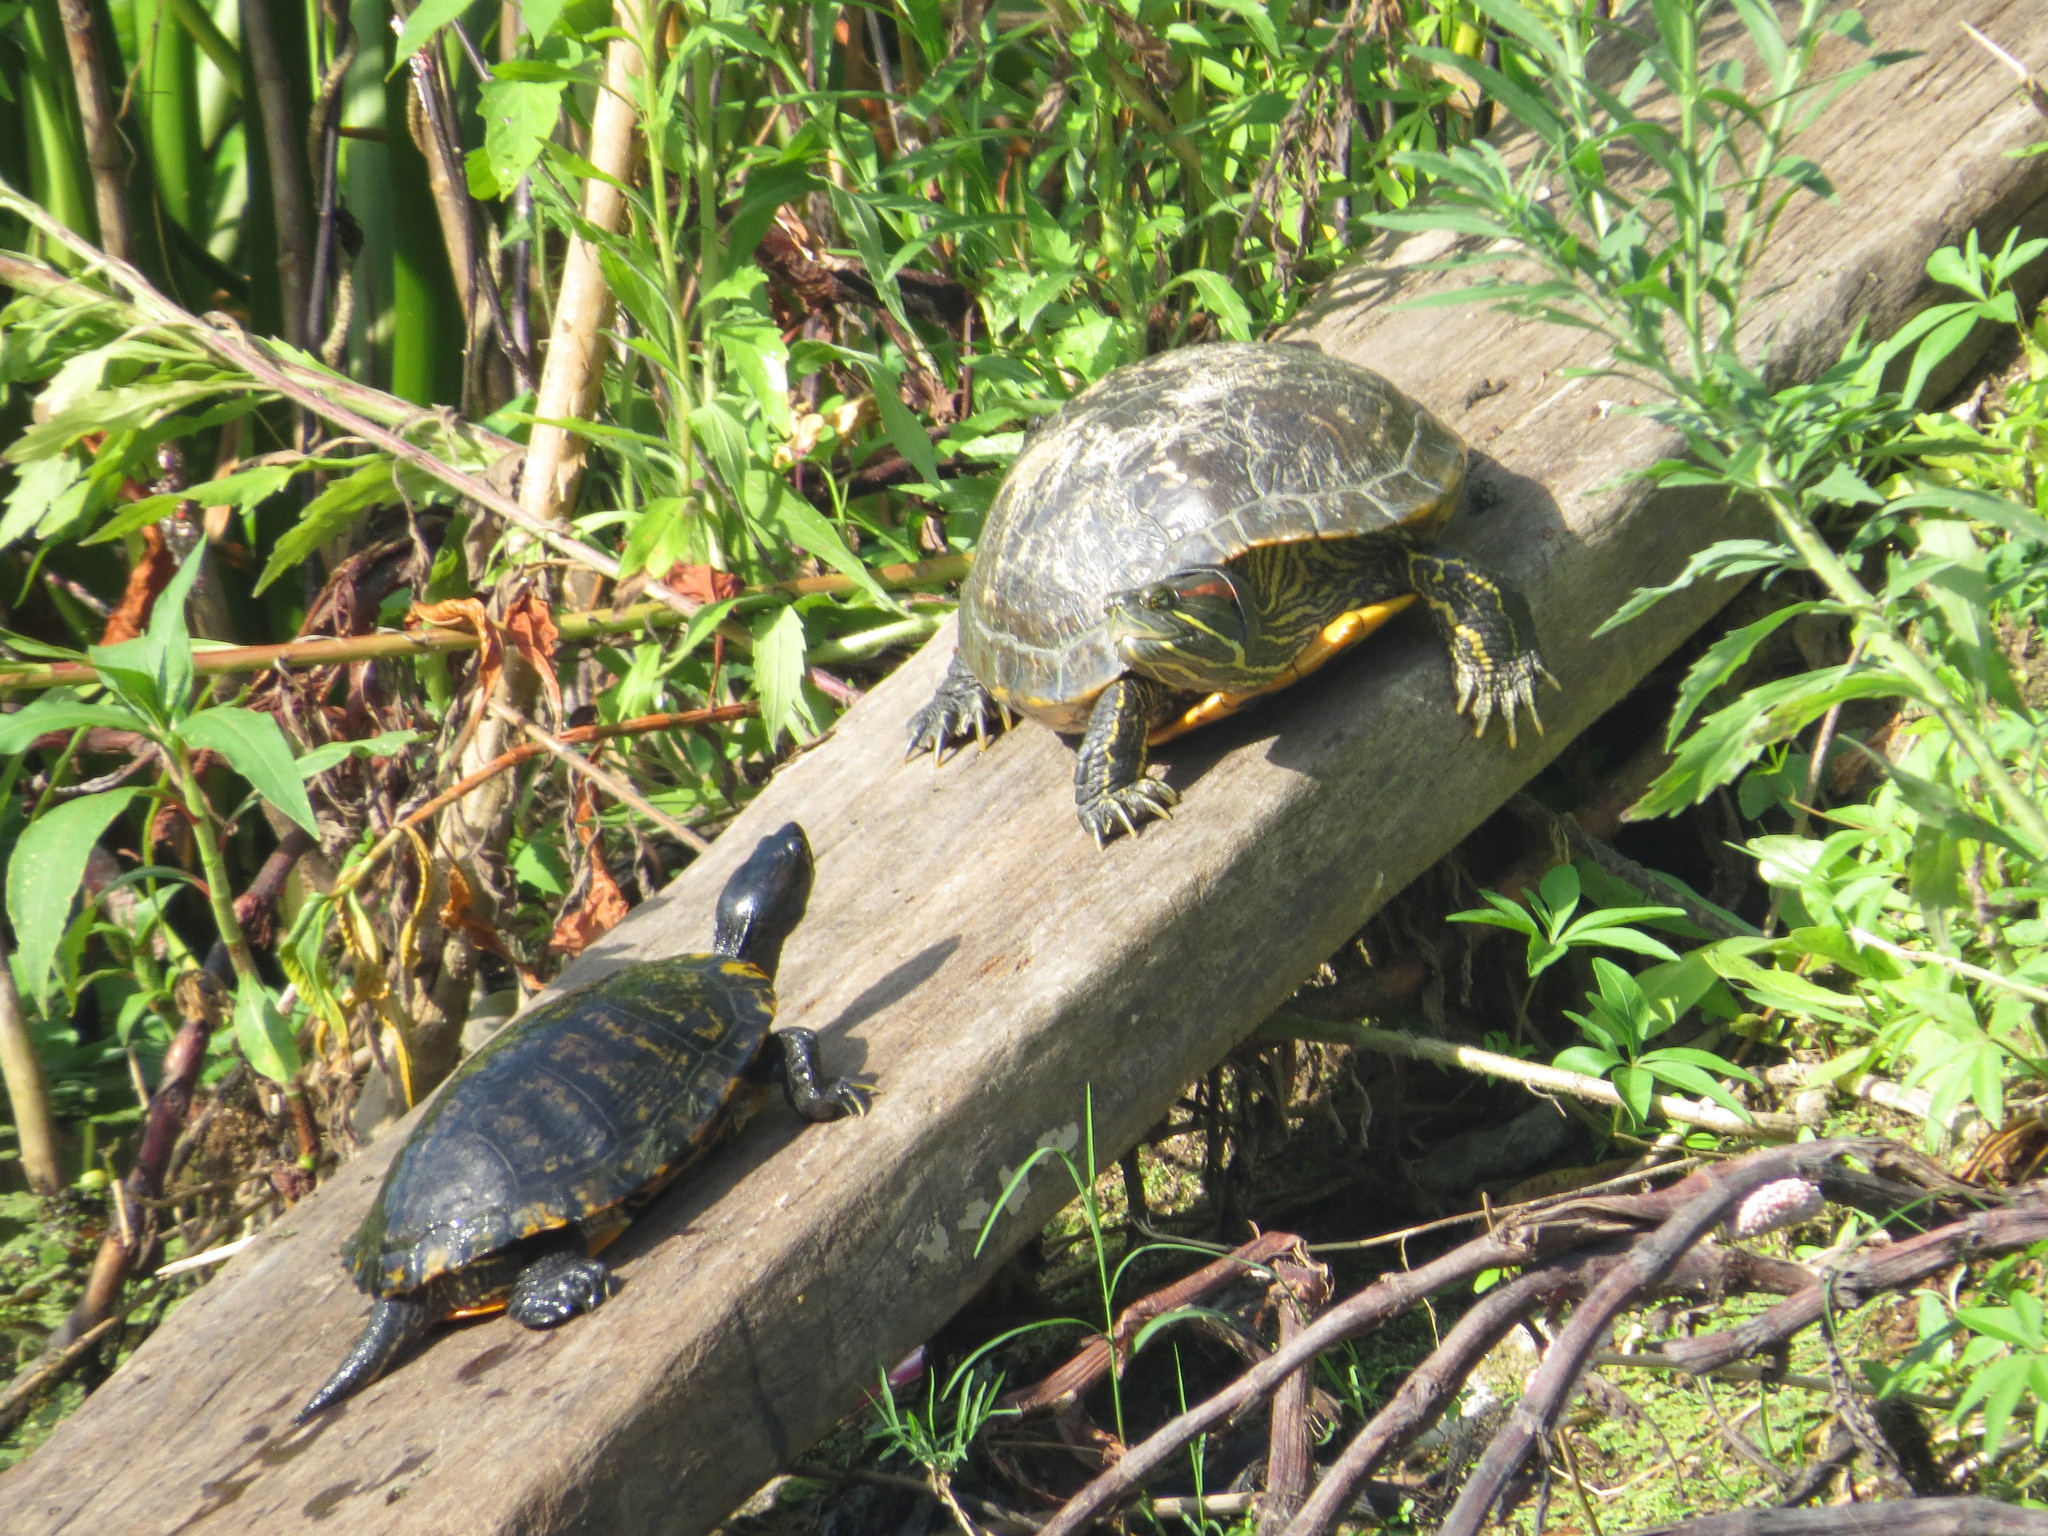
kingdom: Animalia
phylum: Chordata
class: Testudines
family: Emydidae
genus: Trachemys
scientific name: Trachemys scripta
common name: Slider
